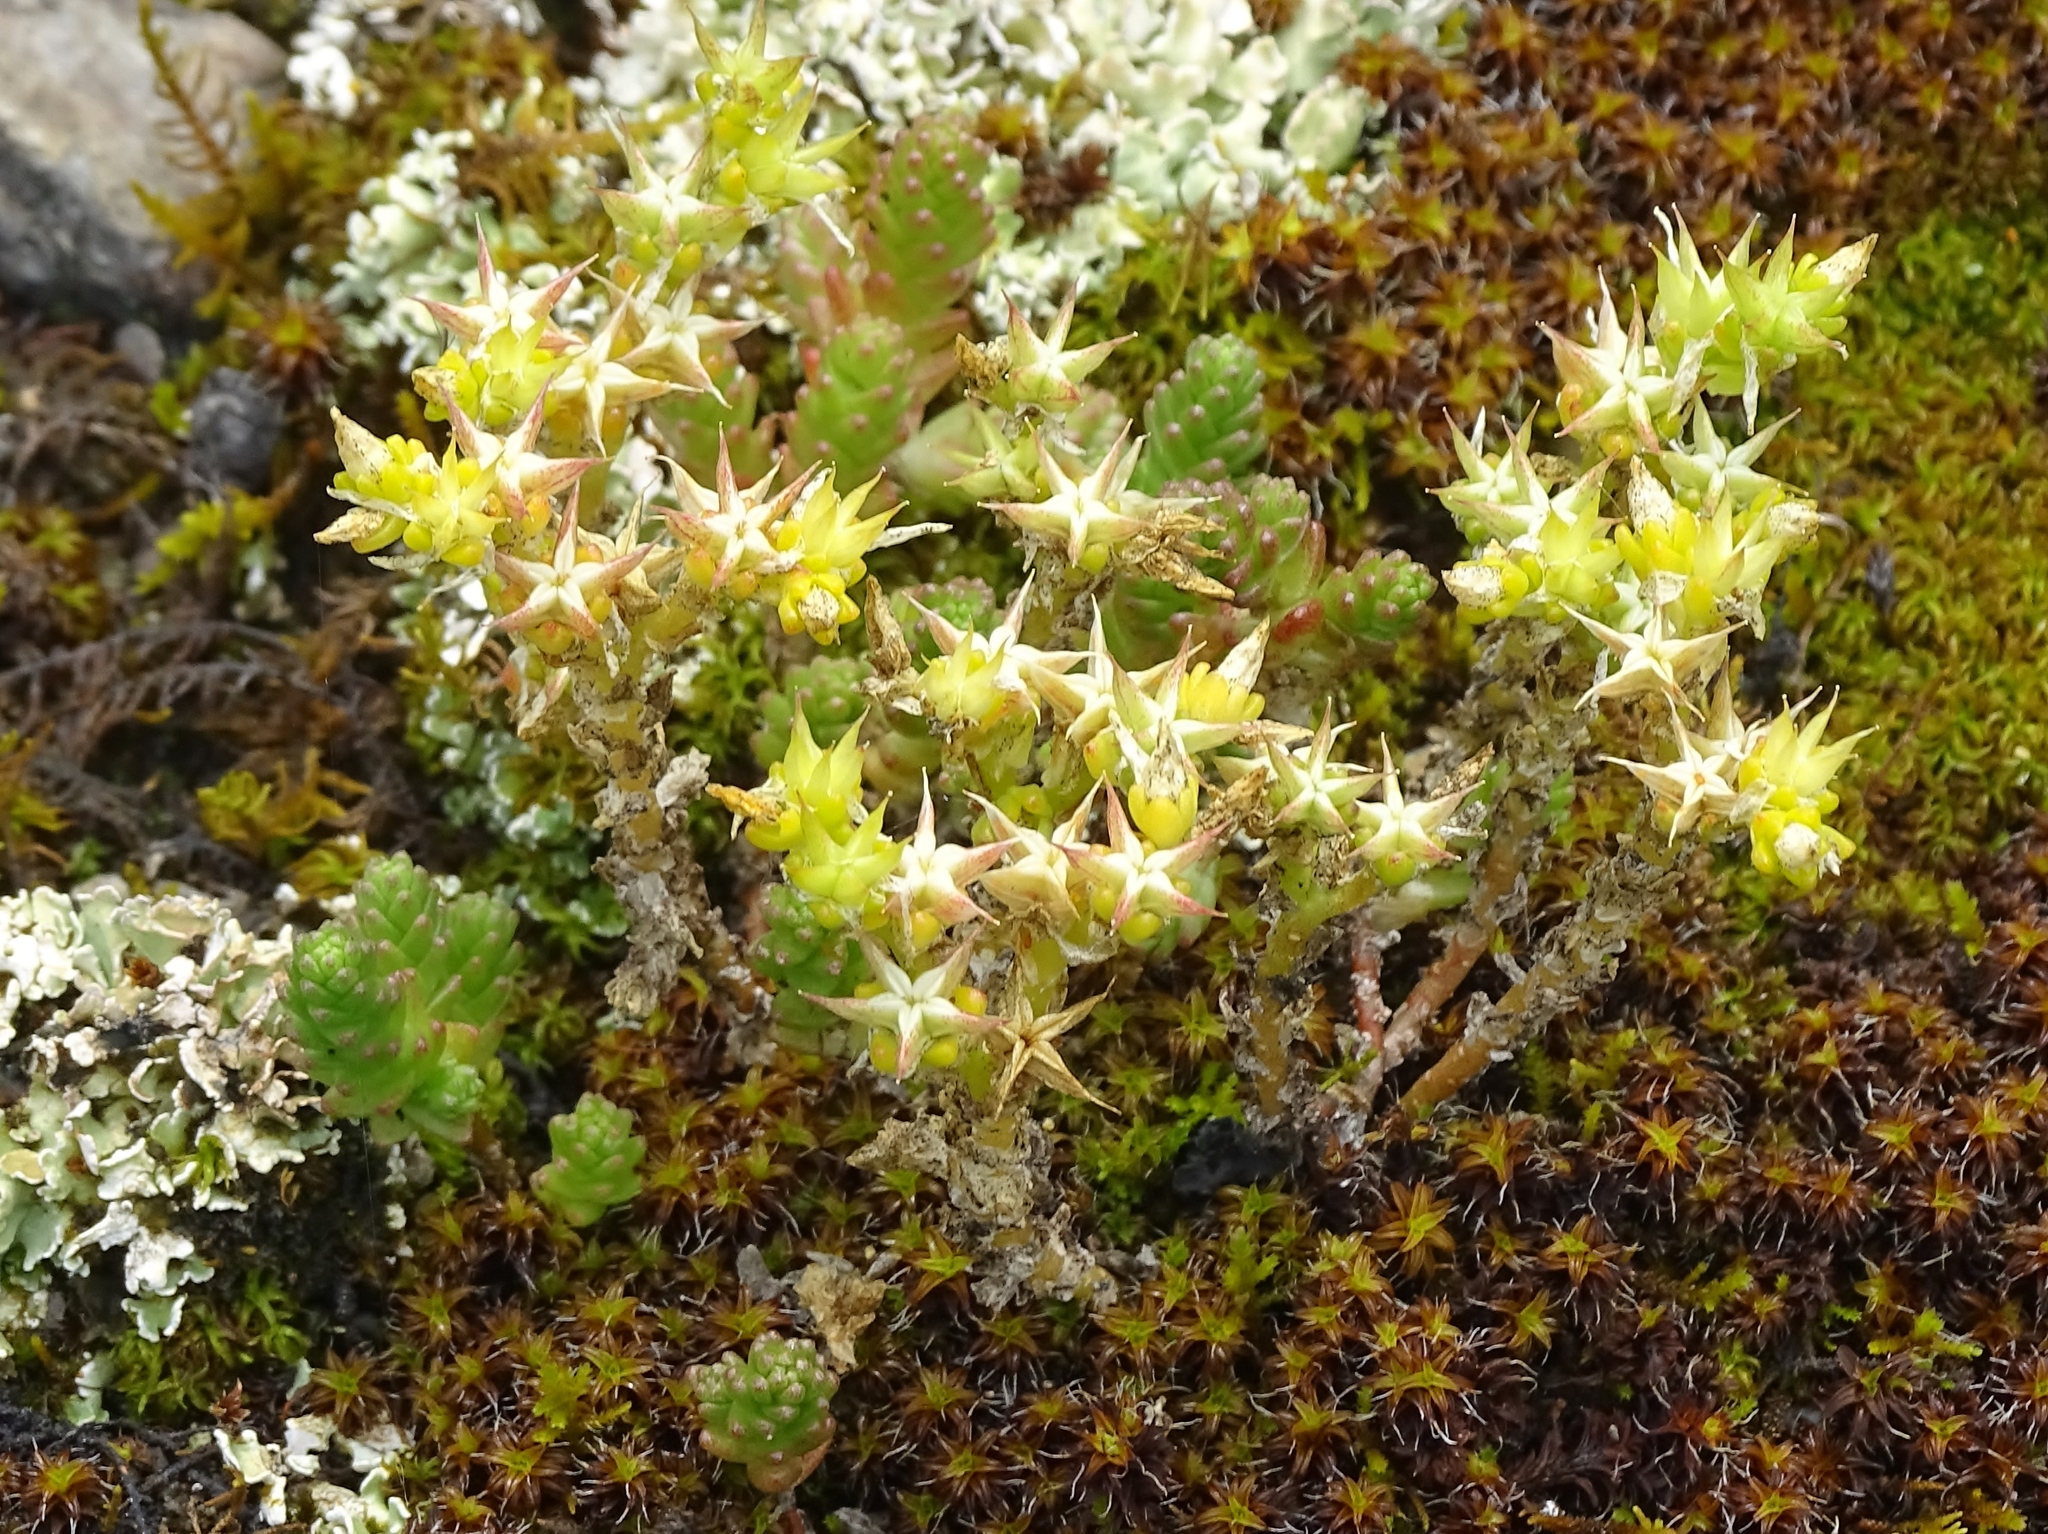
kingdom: Plantae
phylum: Tracheophyta
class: Magnoliopsida
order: Saxifragales
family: Crassulaceae
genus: Sedum
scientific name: Sedum acre
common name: Biting stonecrop
